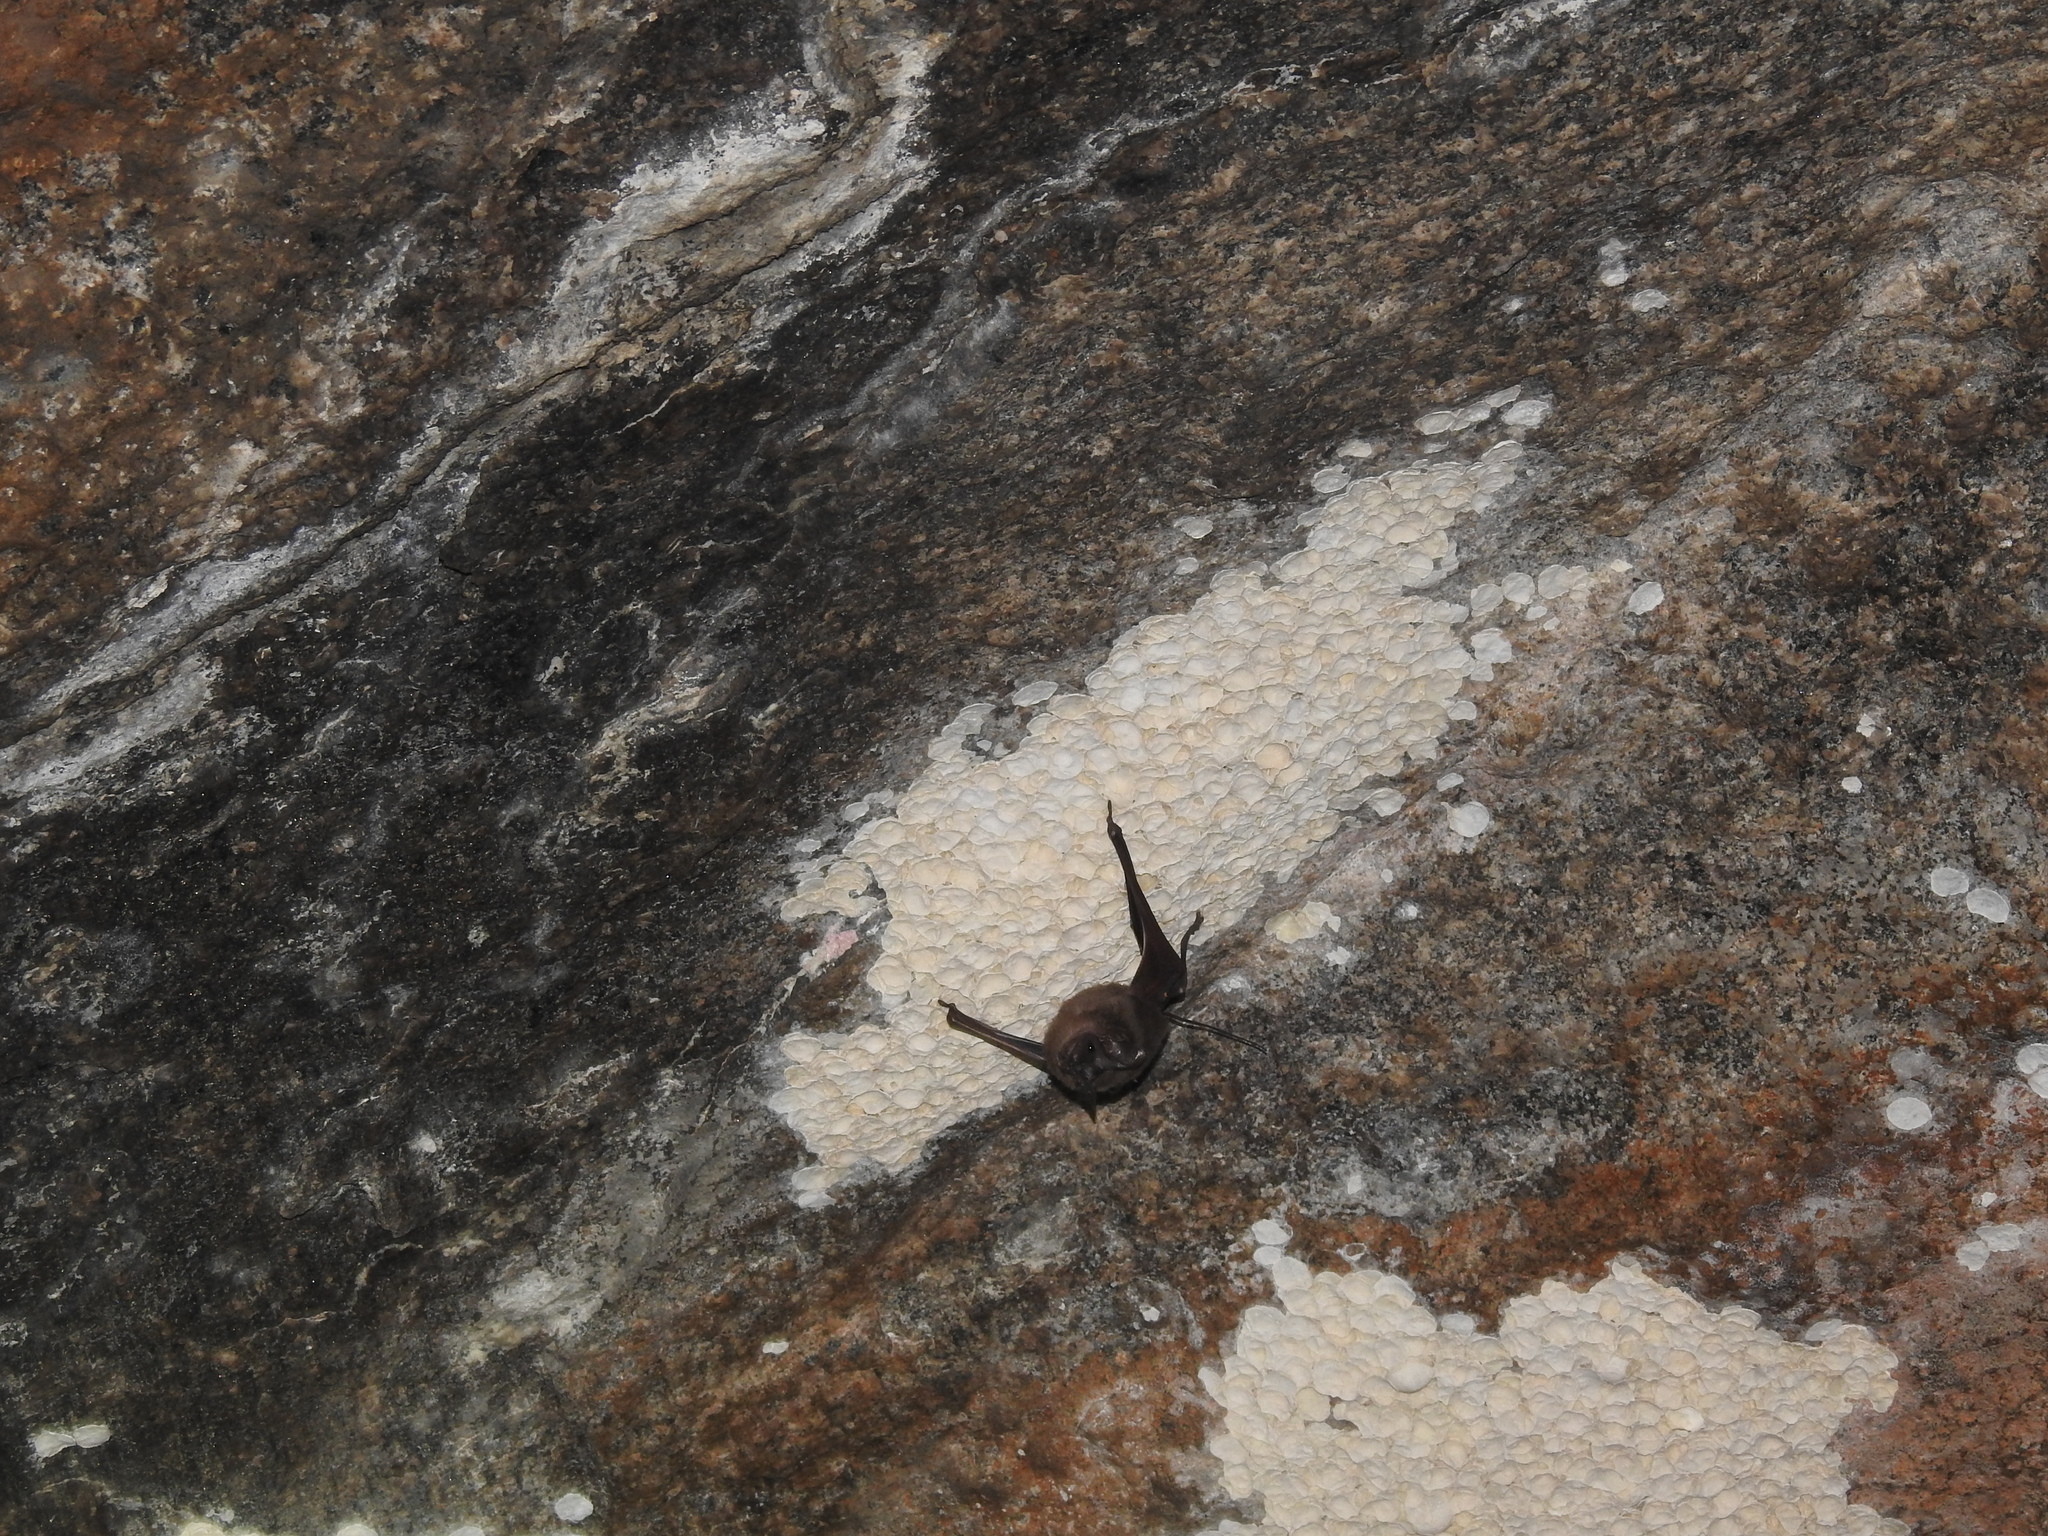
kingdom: Animalia
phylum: Chordata
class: Mammalia
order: Chiroptera
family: Rhinopomatidae
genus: Rhinopoma
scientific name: Rhinopoma hardwickii
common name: Lesser mouse-tailed bat
